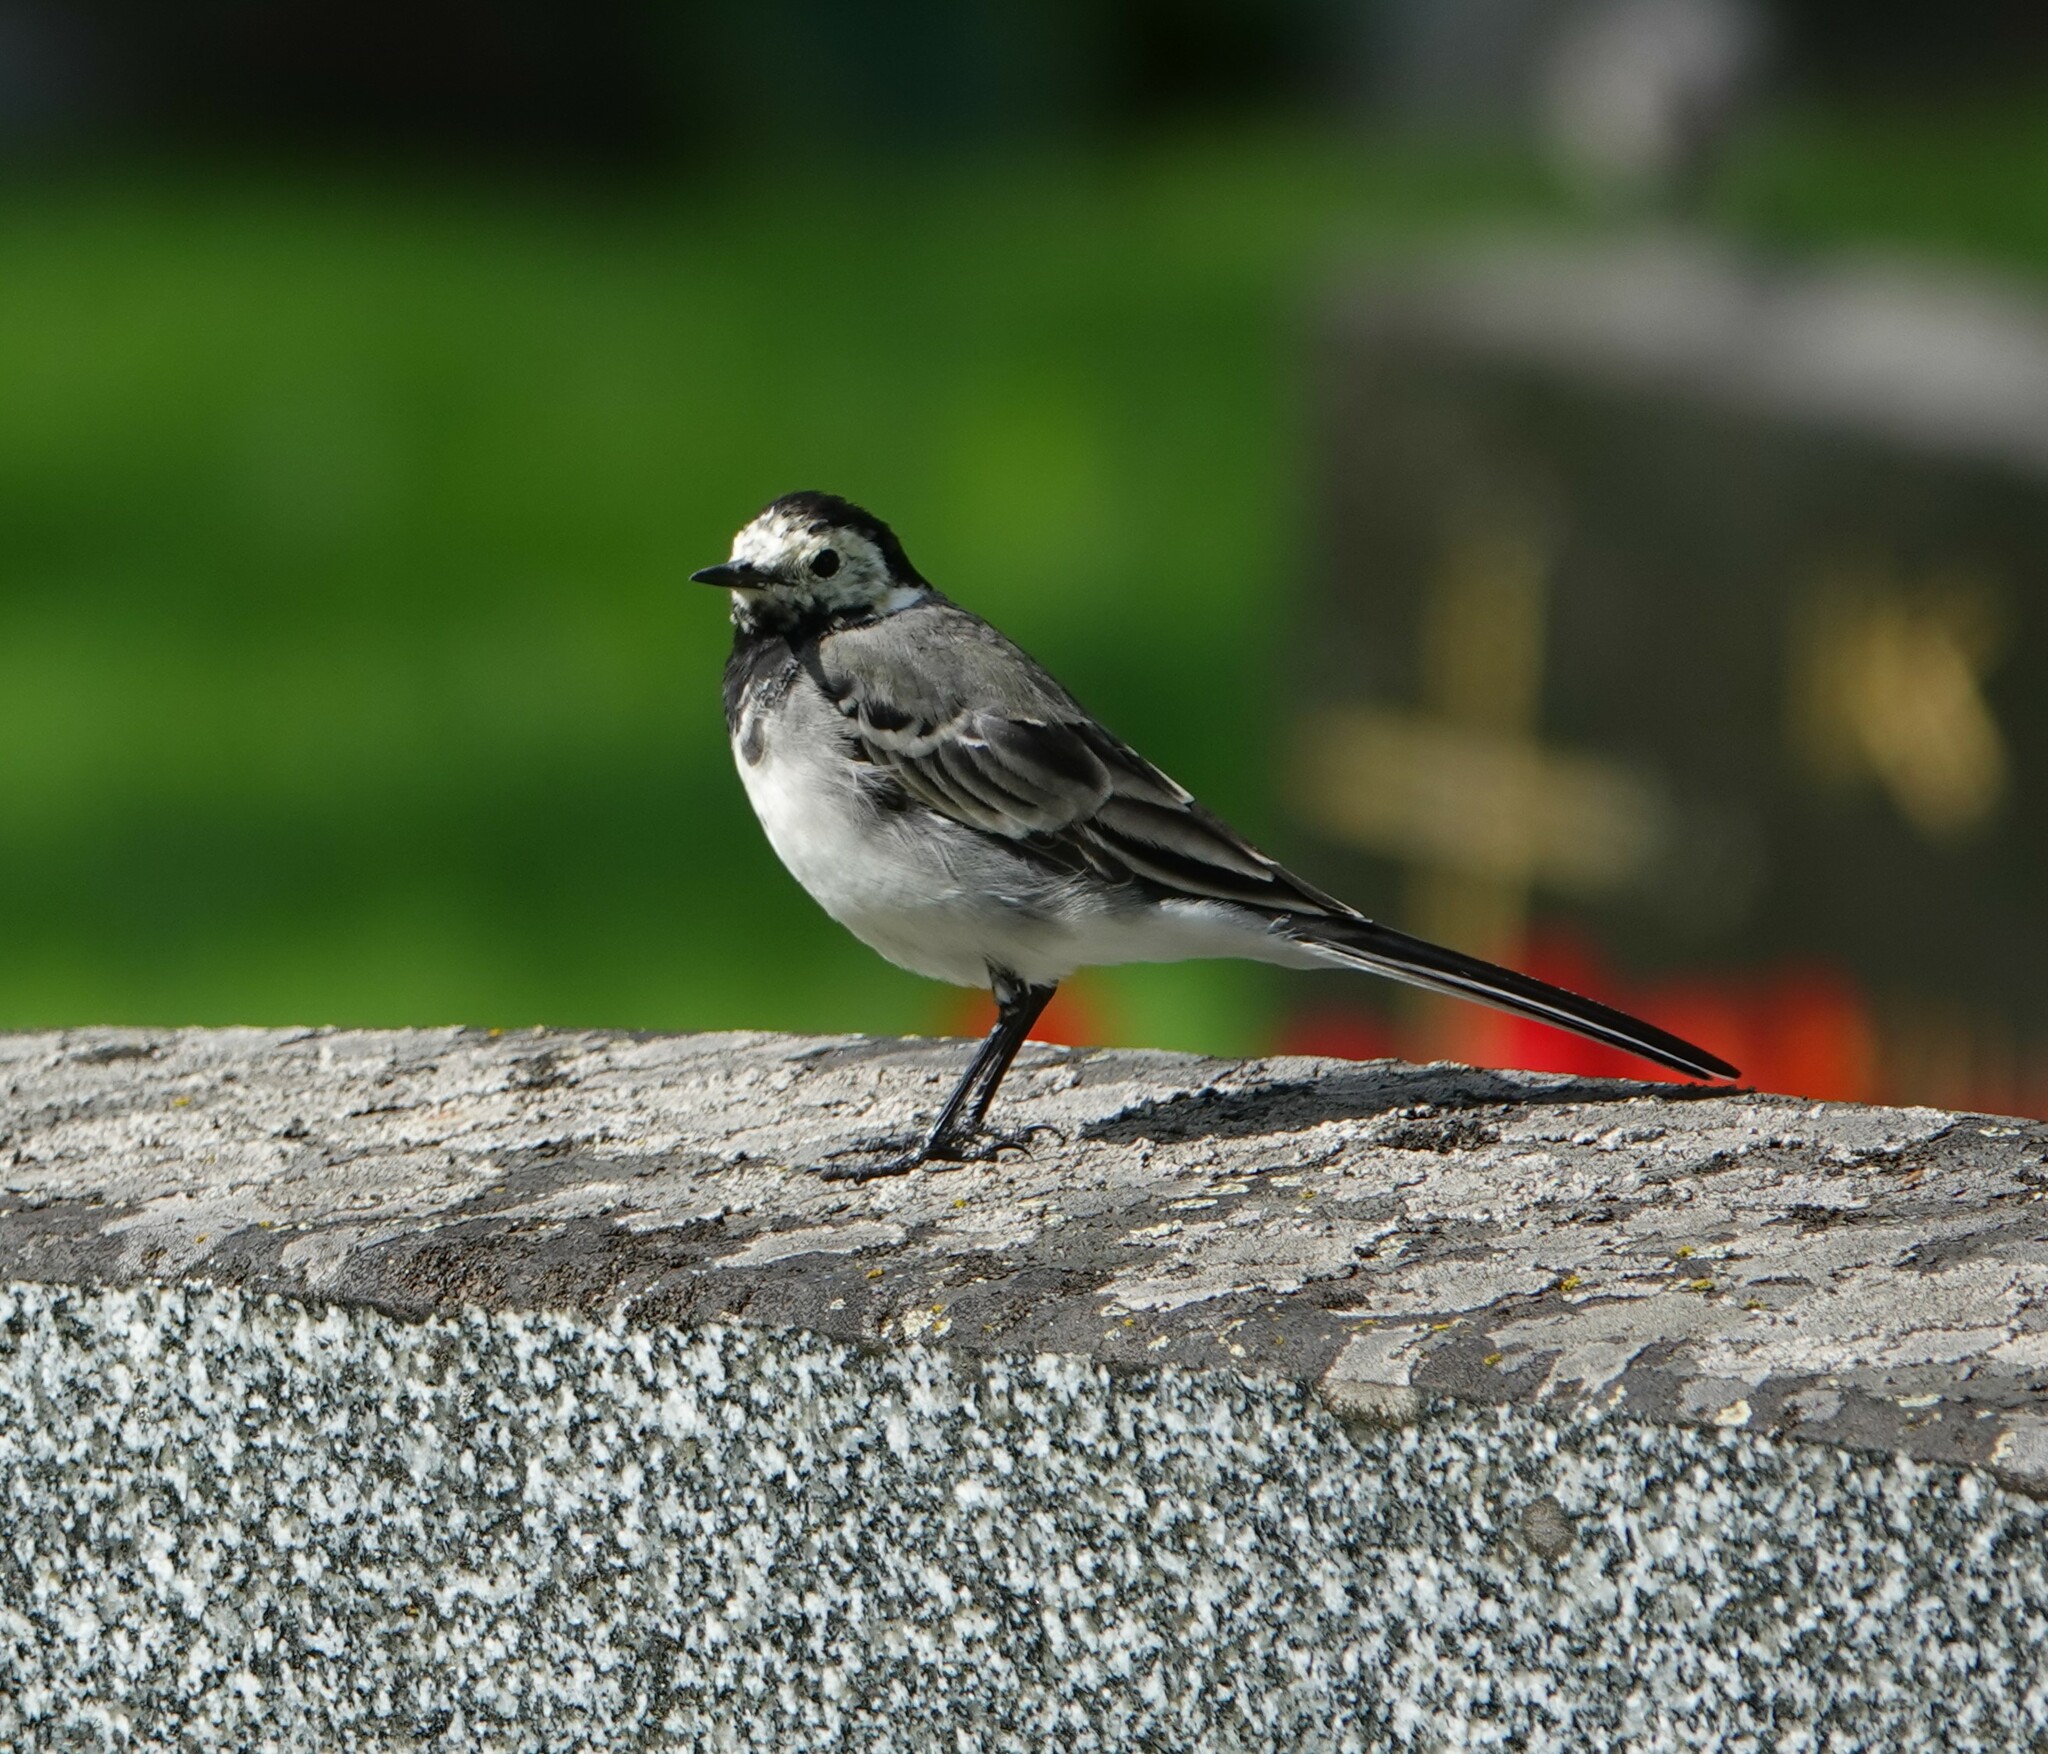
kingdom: Animalia
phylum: Chordata
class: Aves
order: Passeriformes
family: Motacillidae
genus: Motacilla
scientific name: Motacilla alba
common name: White wagtail
